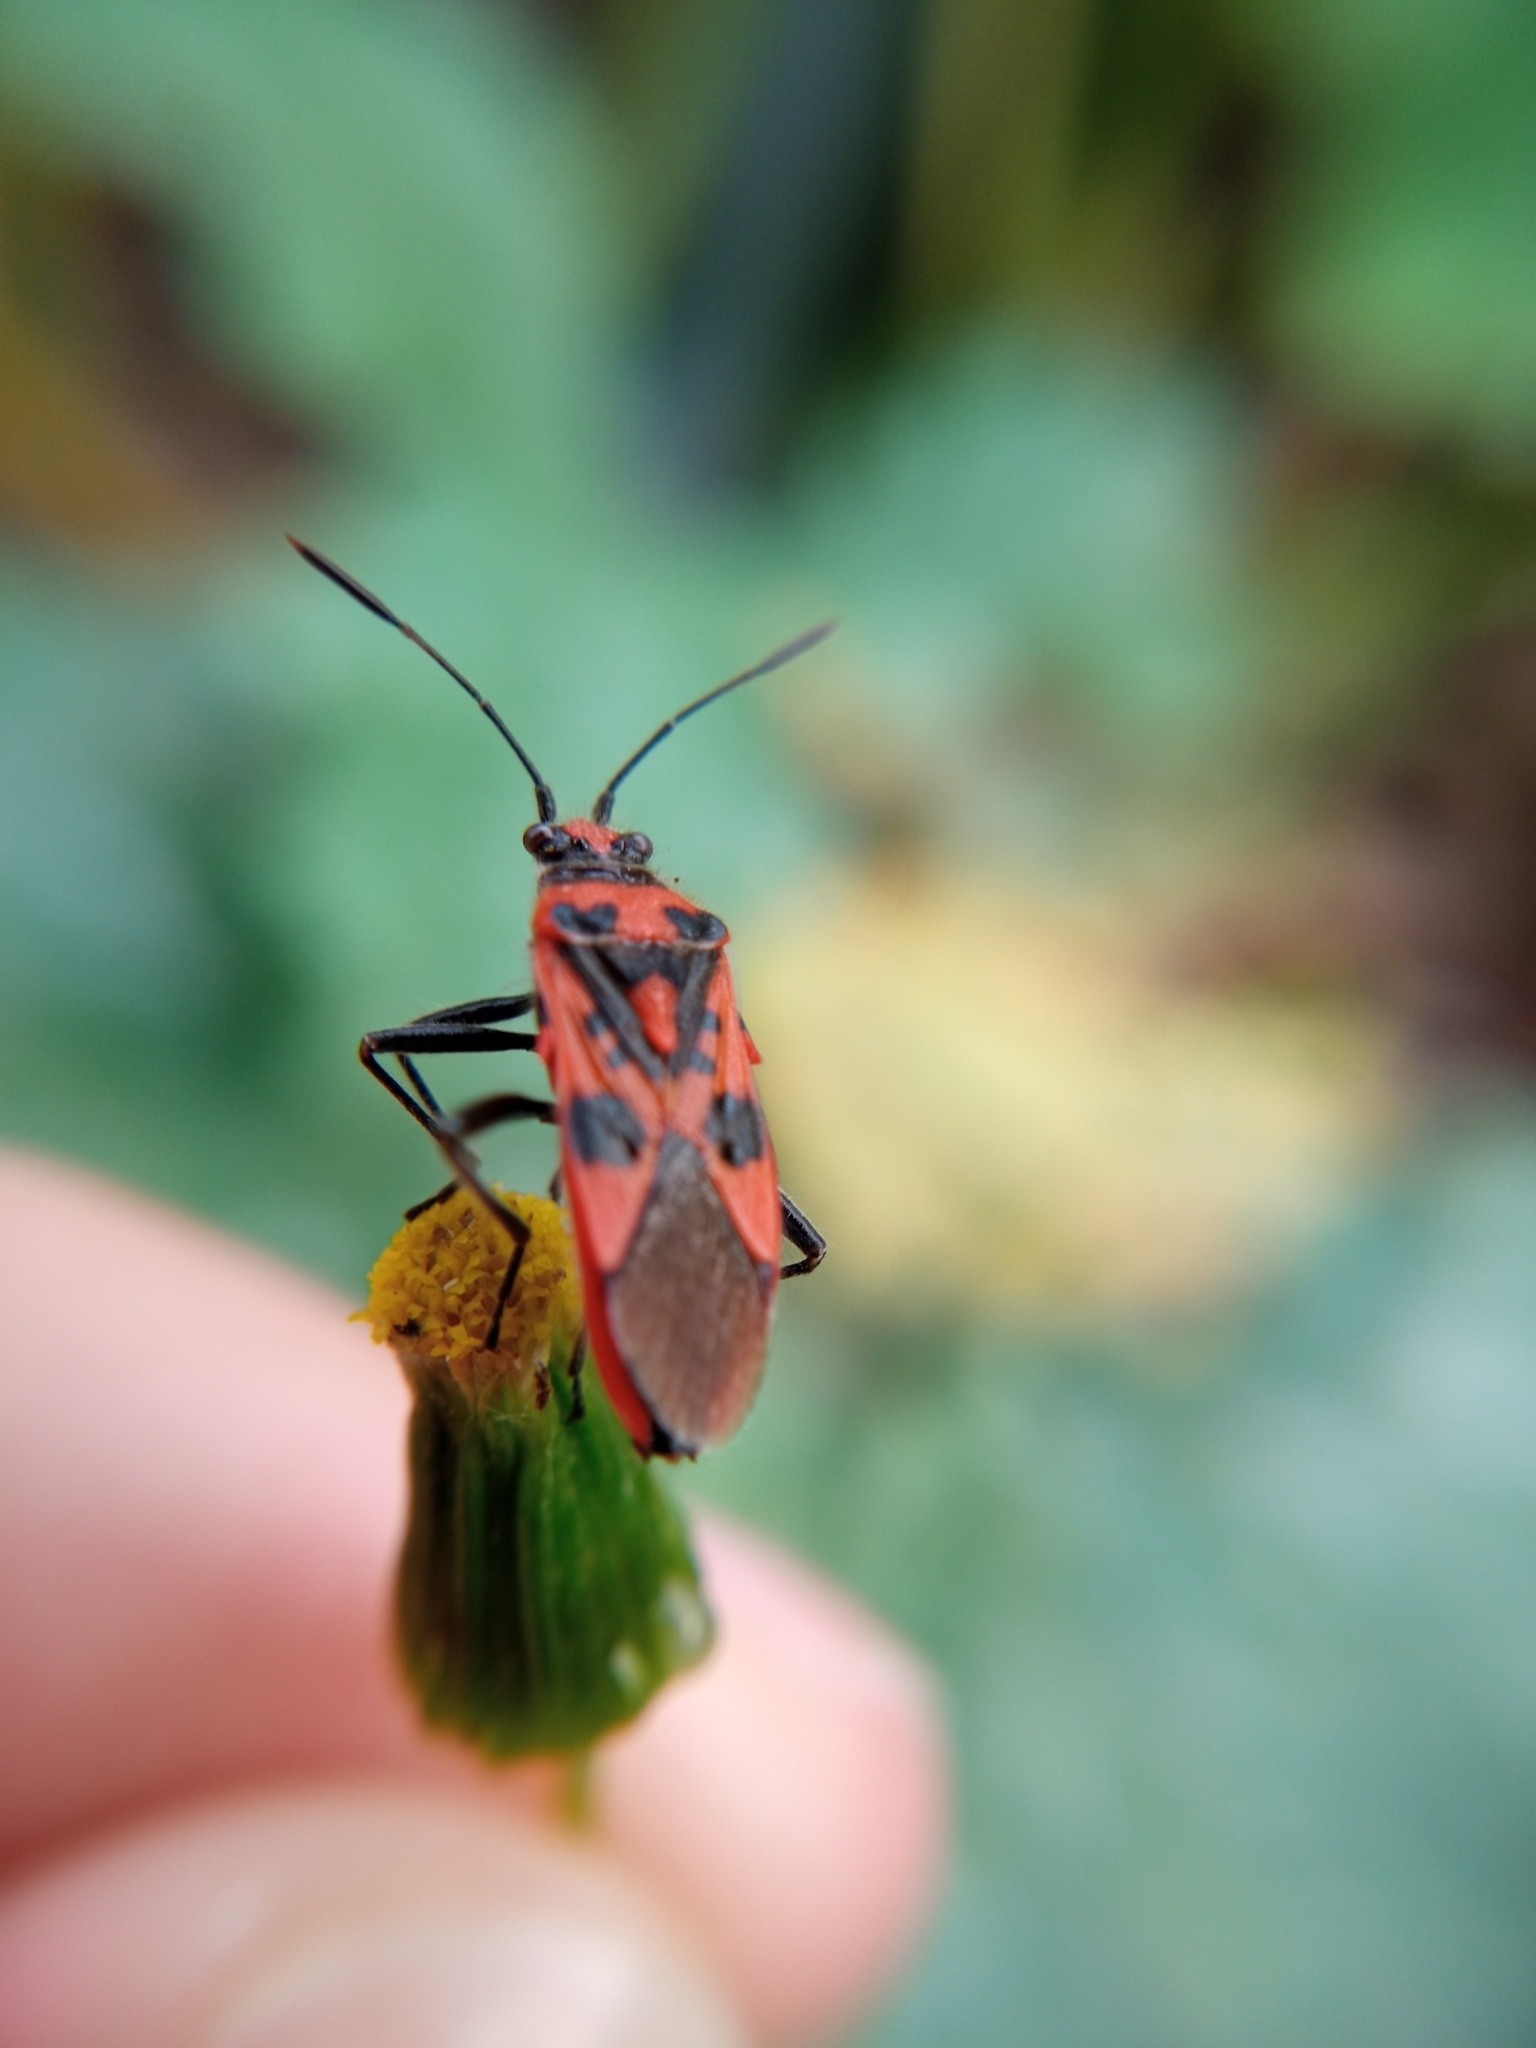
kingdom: Animalia
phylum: Arthropoda
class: Insecta
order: Hemiptera
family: Rhopalidae
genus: Corizus
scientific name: Corizus hyoscyami
